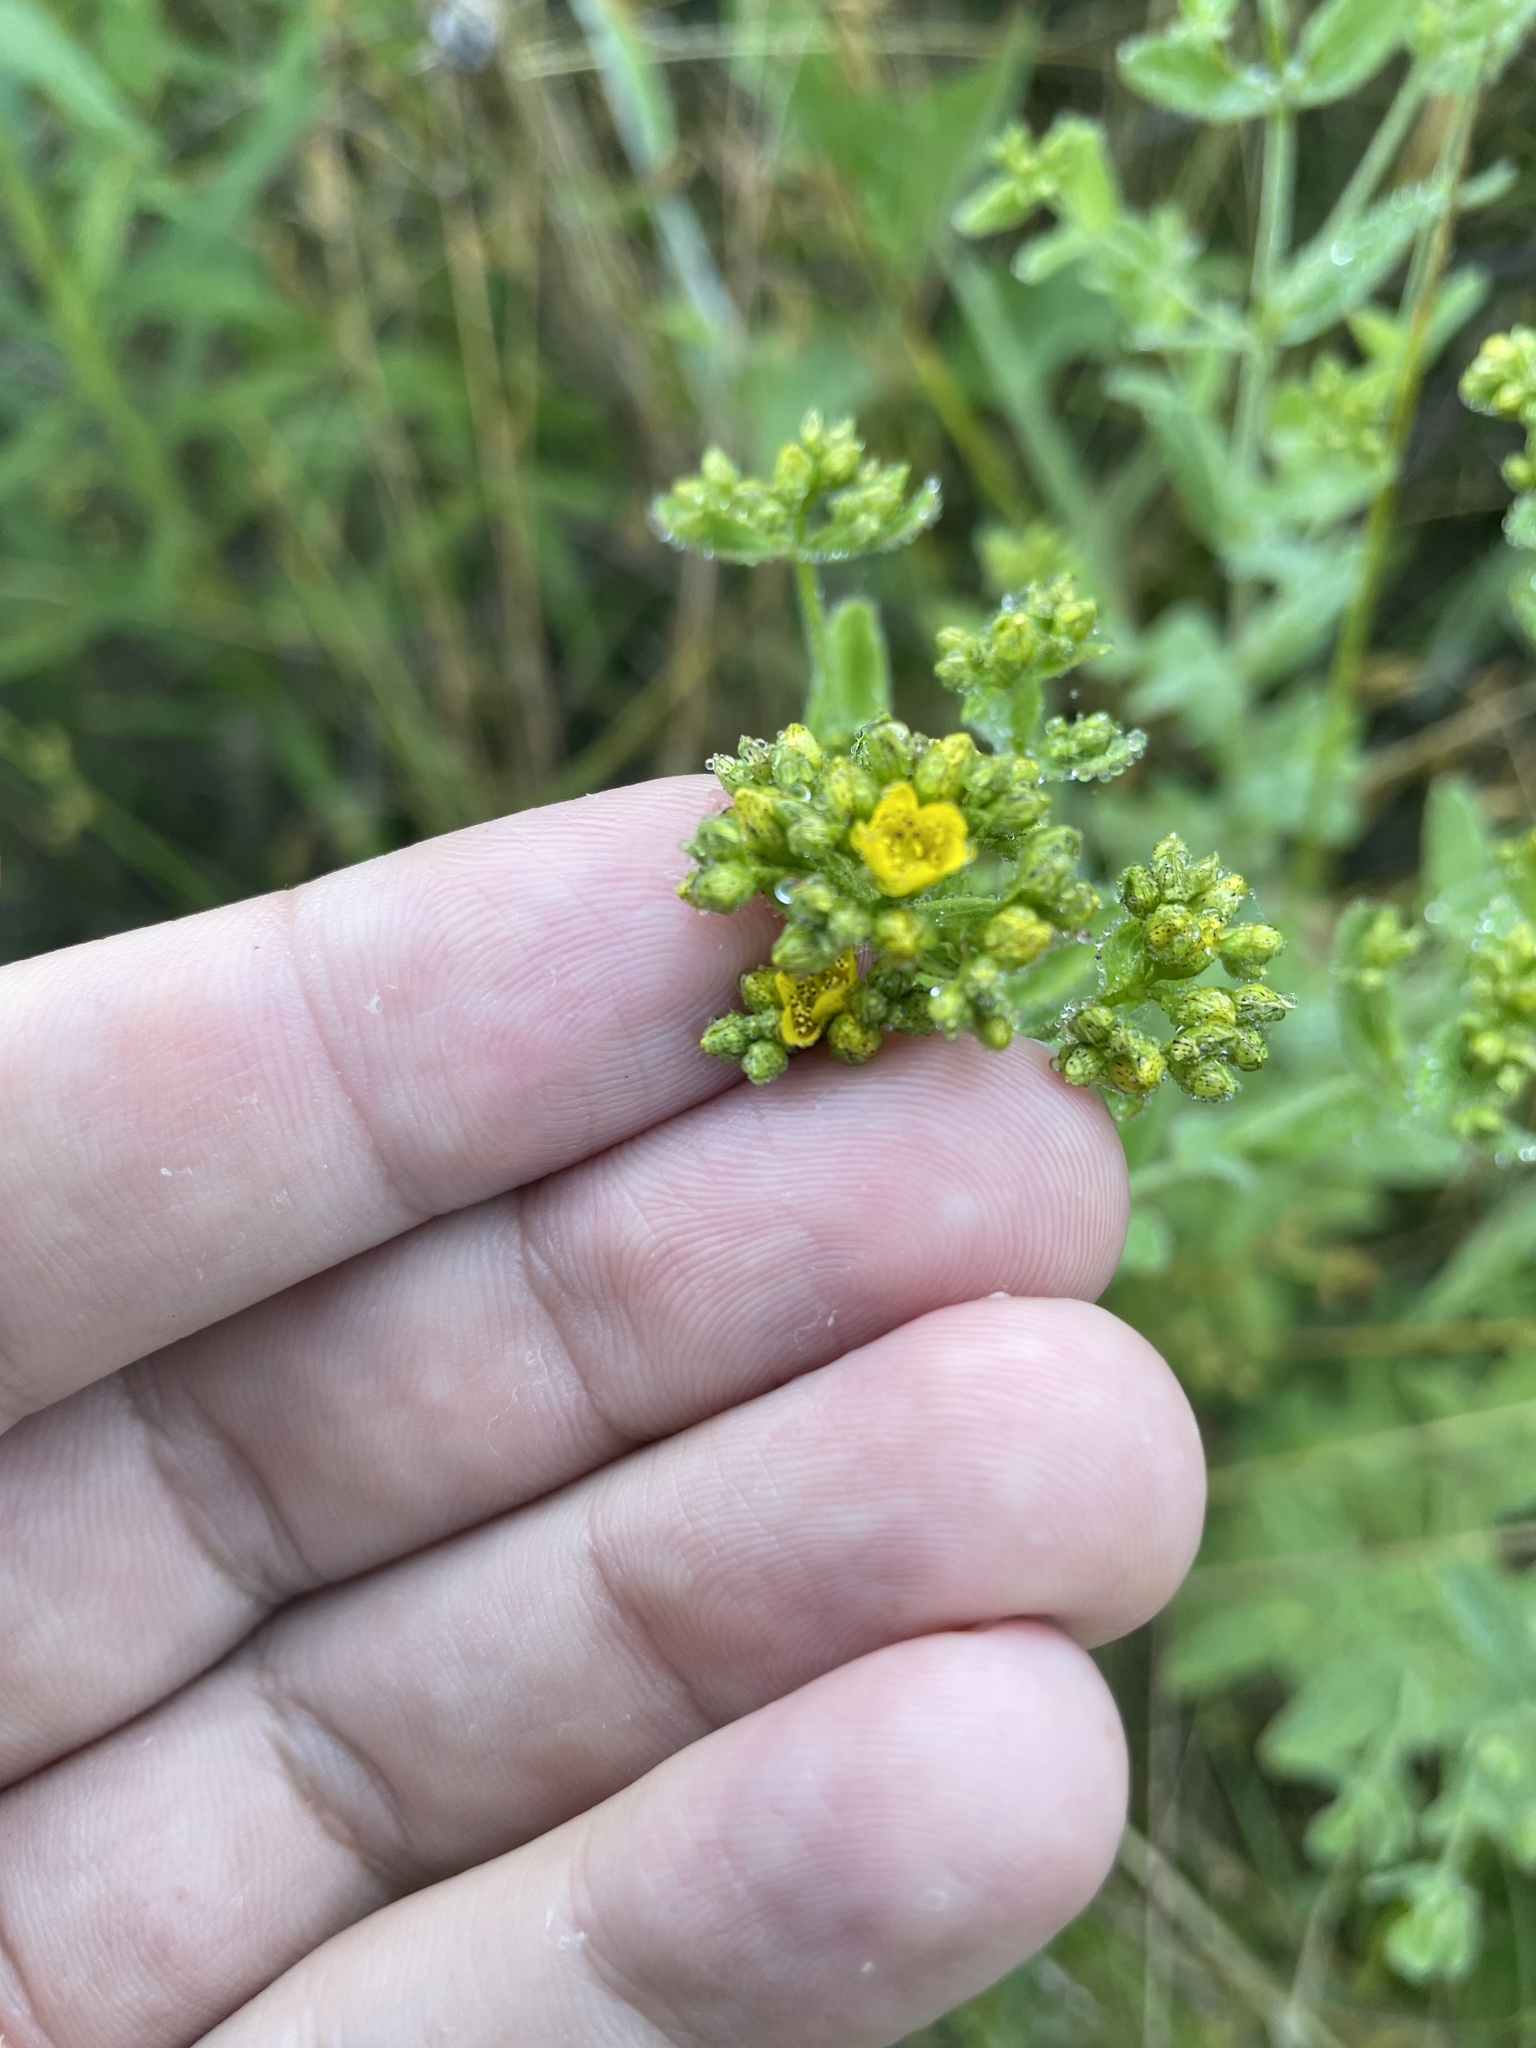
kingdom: Plantae
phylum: Tracheophyta
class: Magnoliopsida
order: Malpighiales
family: Hypericaceae
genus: Hypericum
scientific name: Hypericum punctatum
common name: Spotted st. john's-wort
